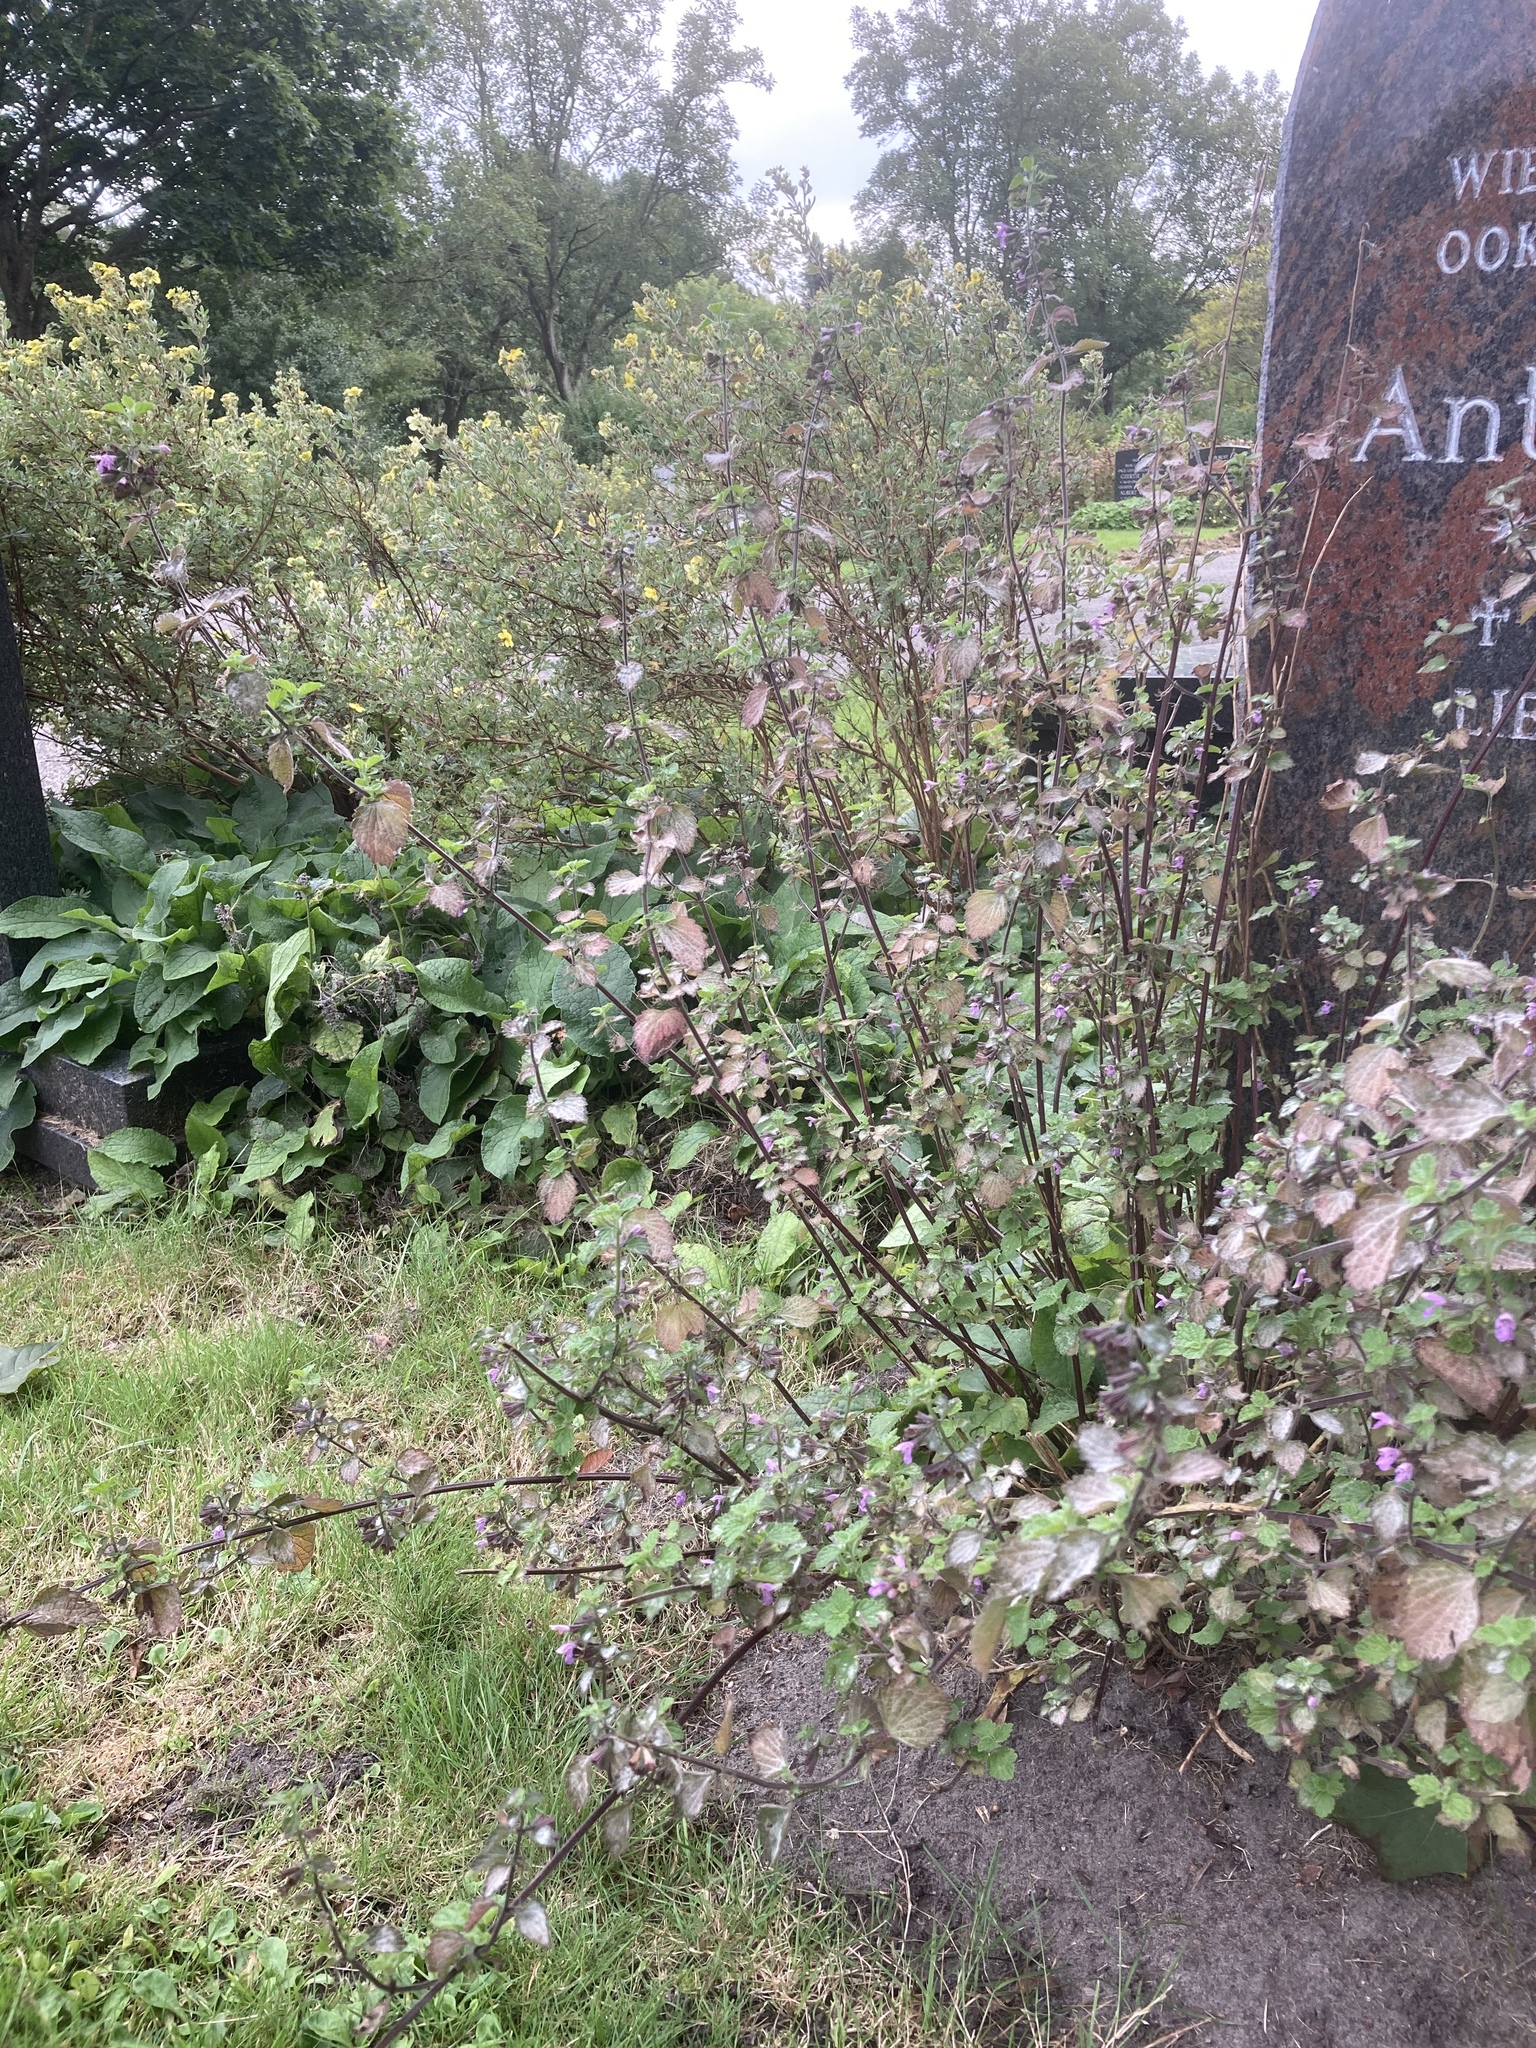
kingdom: Plantae
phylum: Tracheophyta
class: Magnoliopsida
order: Lamiales
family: Lamiaceae
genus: Ballota
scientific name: Ballota nigra
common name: Black horehound
